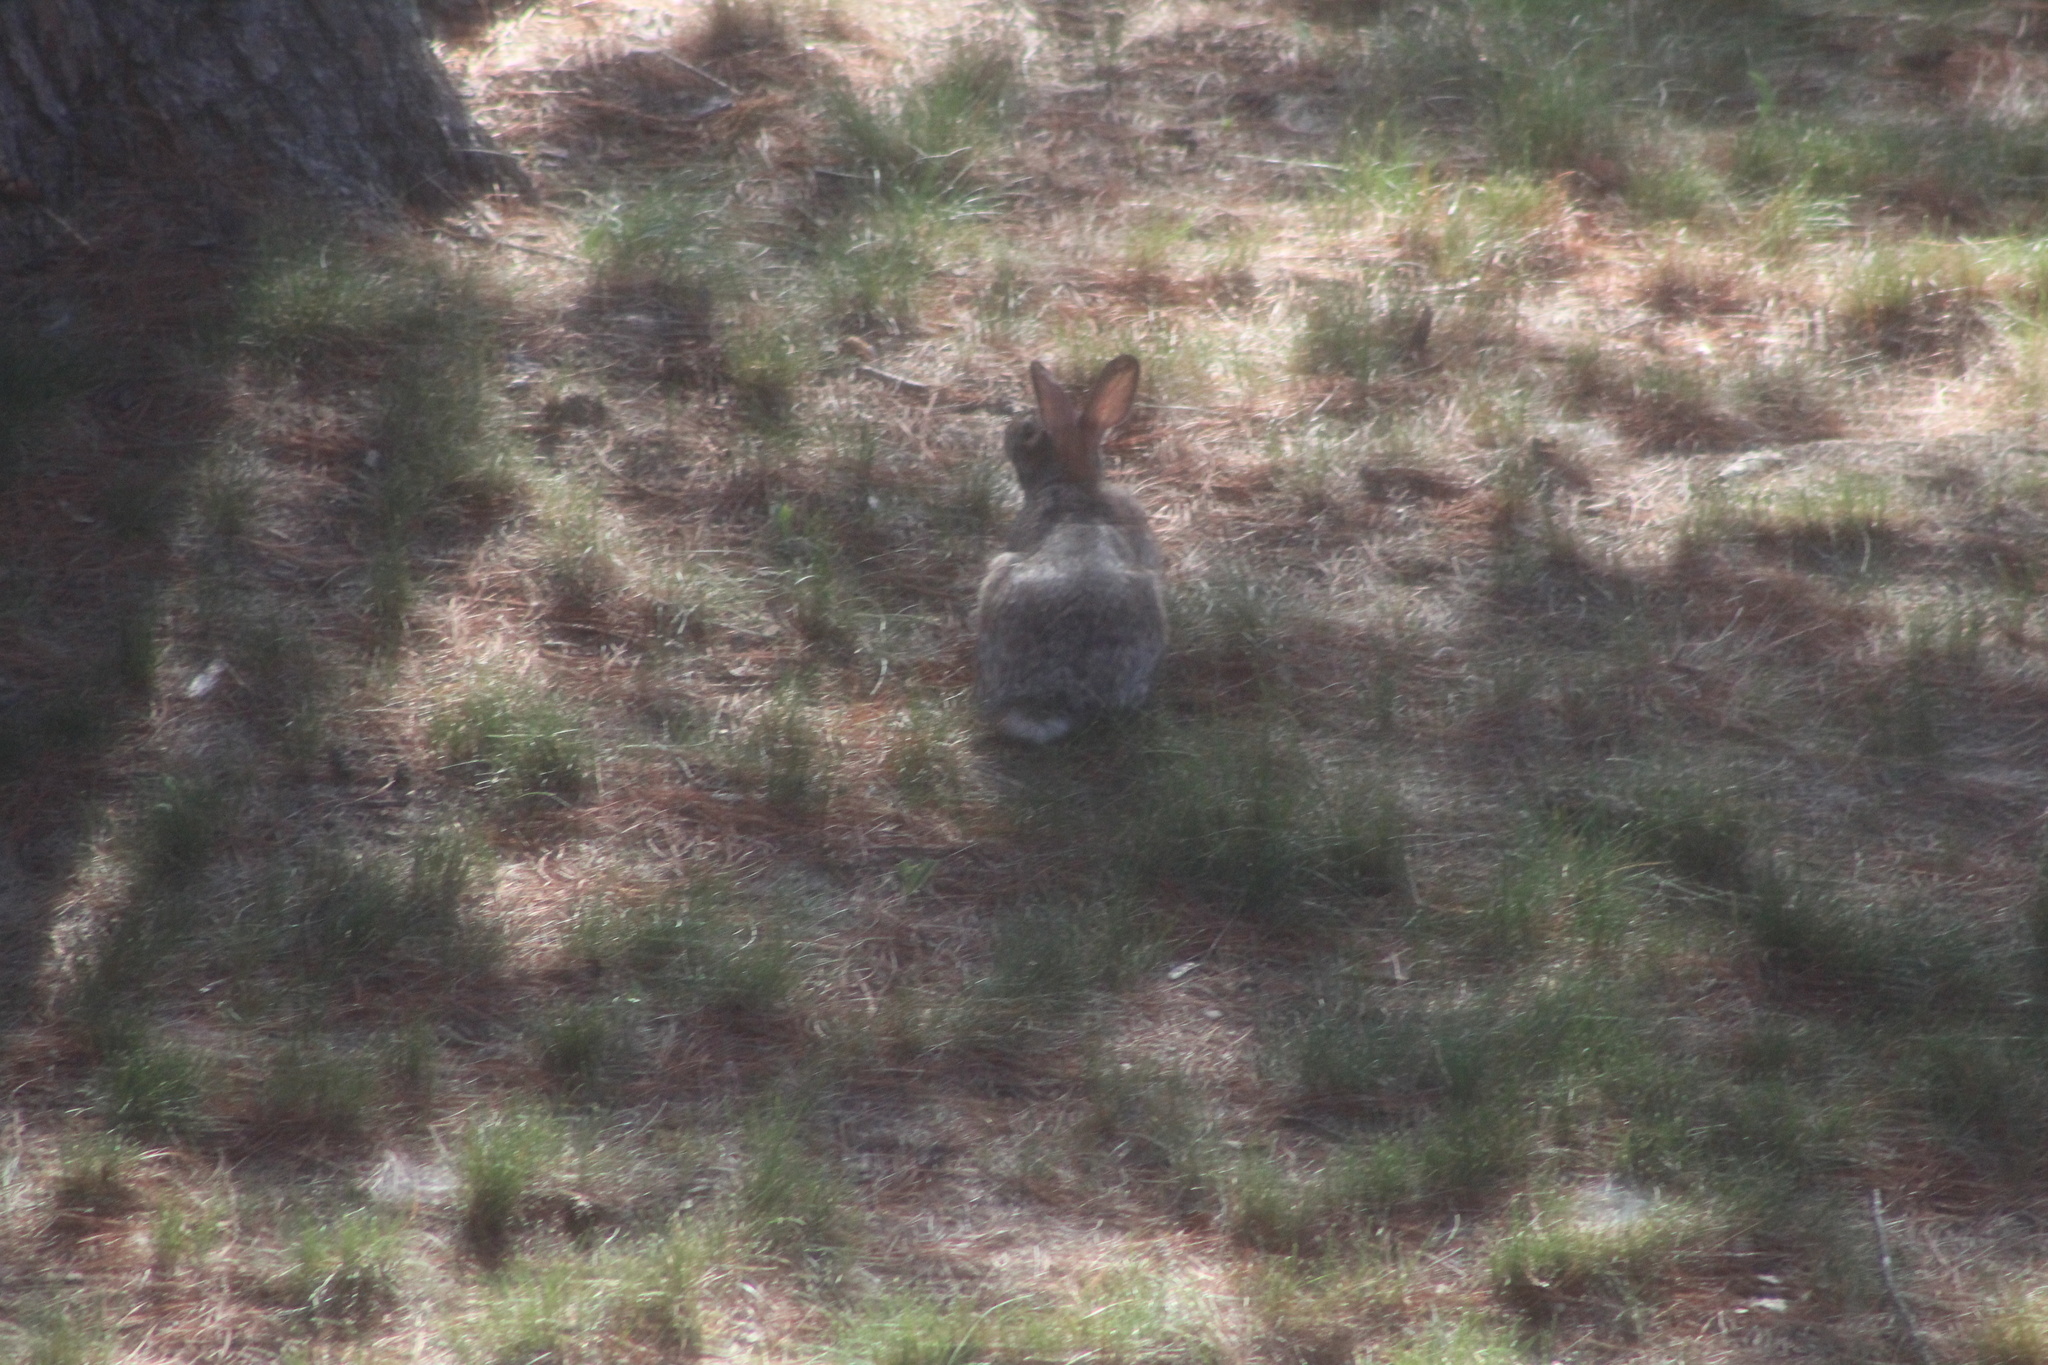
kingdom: Animalia
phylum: Chordata
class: Mammalia
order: Lagomorpha
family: Leporidae
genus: Sylvilagus
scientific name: Sylvilagus floridanus
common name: Eastern cottontail
